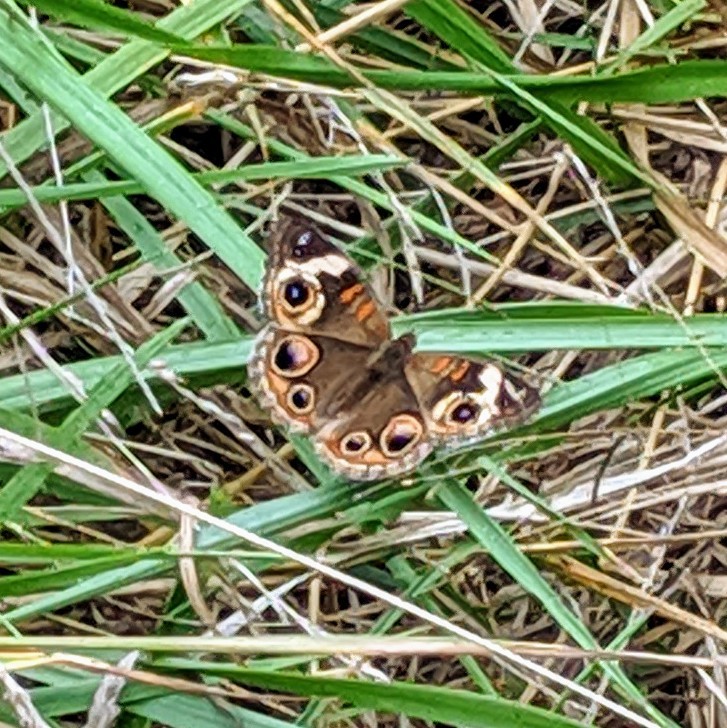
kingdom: Animalia
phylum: Arthropoda
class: Insecta
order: Lepidoptera
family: Nymphalidae
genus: Junonia
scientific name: Junonia coenia
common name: Common buckeye
